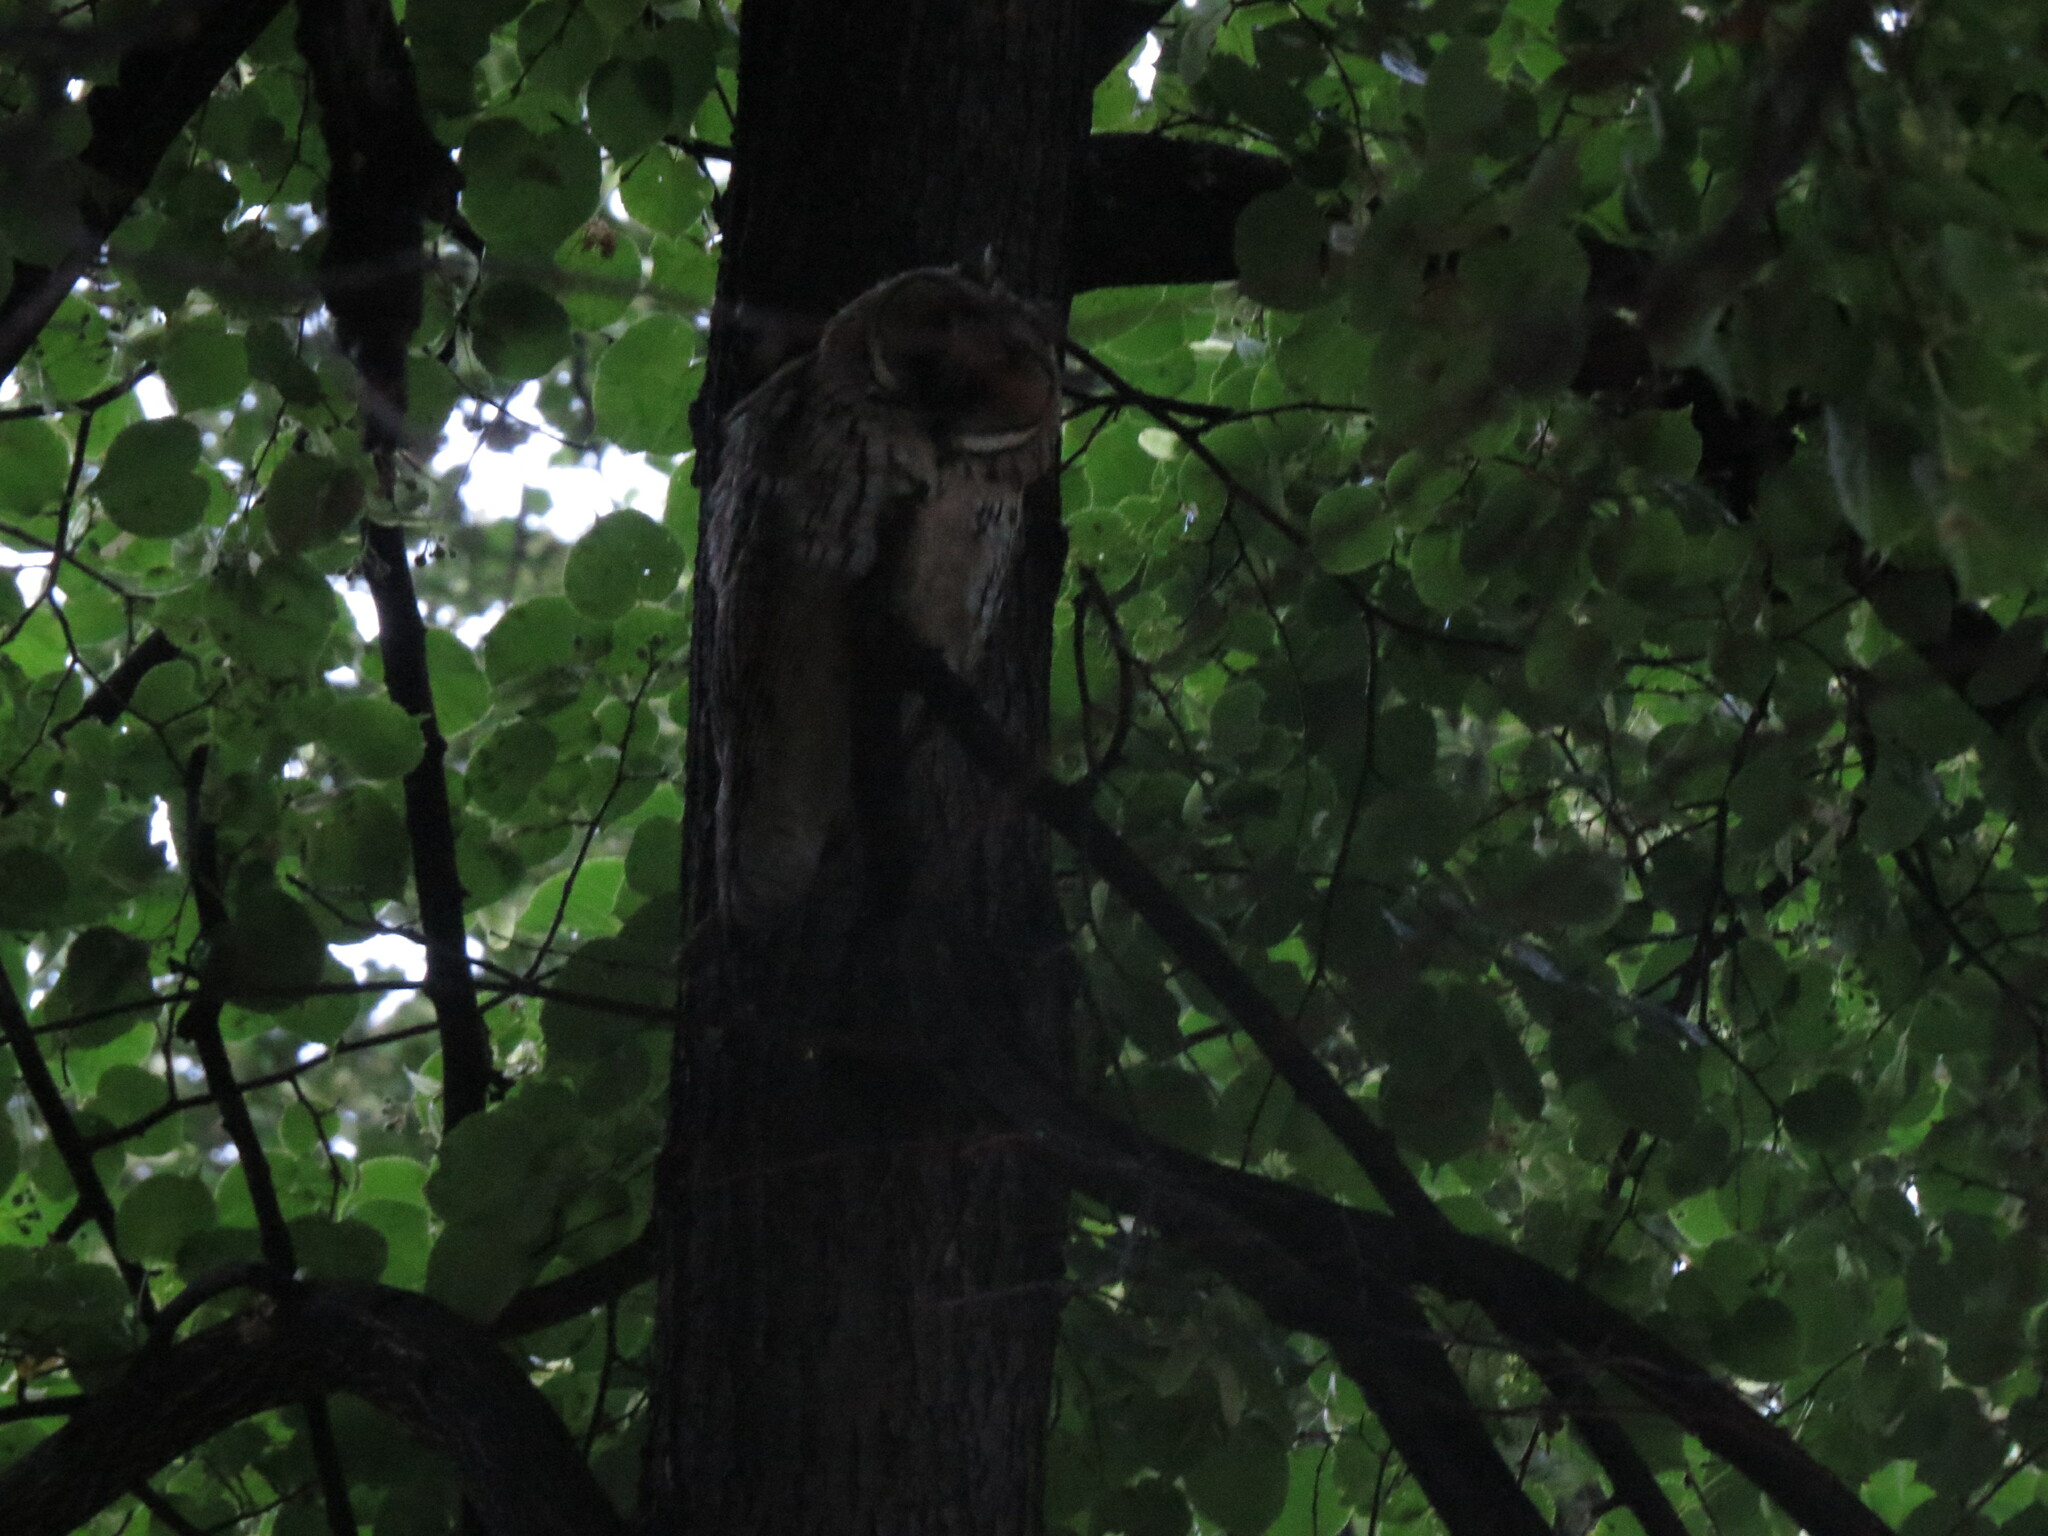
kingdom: Animalia
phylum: Chordata
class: Aves
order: Strigiformes
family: Strigidae
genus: Asio
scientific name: Asio otus
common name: Long-eared owl
